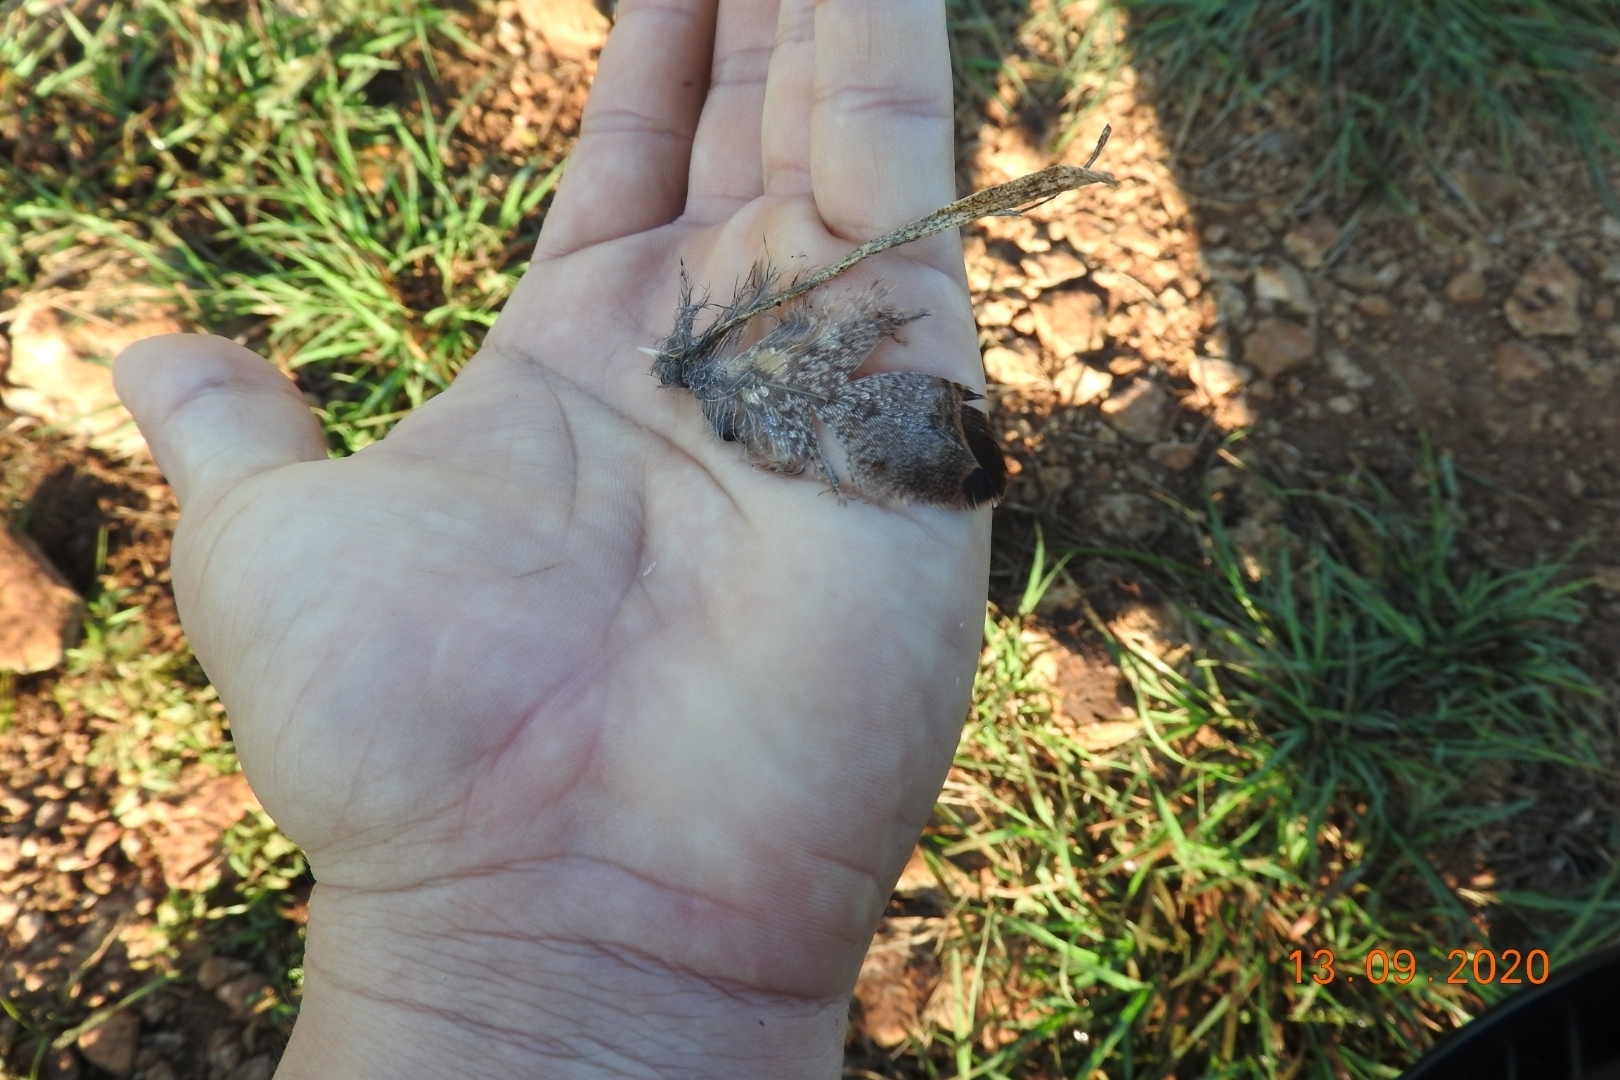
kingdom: Animalia
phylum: Chordata
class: Aves
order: Galliformes
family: Phasianidae
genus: Meleagris
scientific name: Meleagris ocellata
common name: Ocellated turkey
